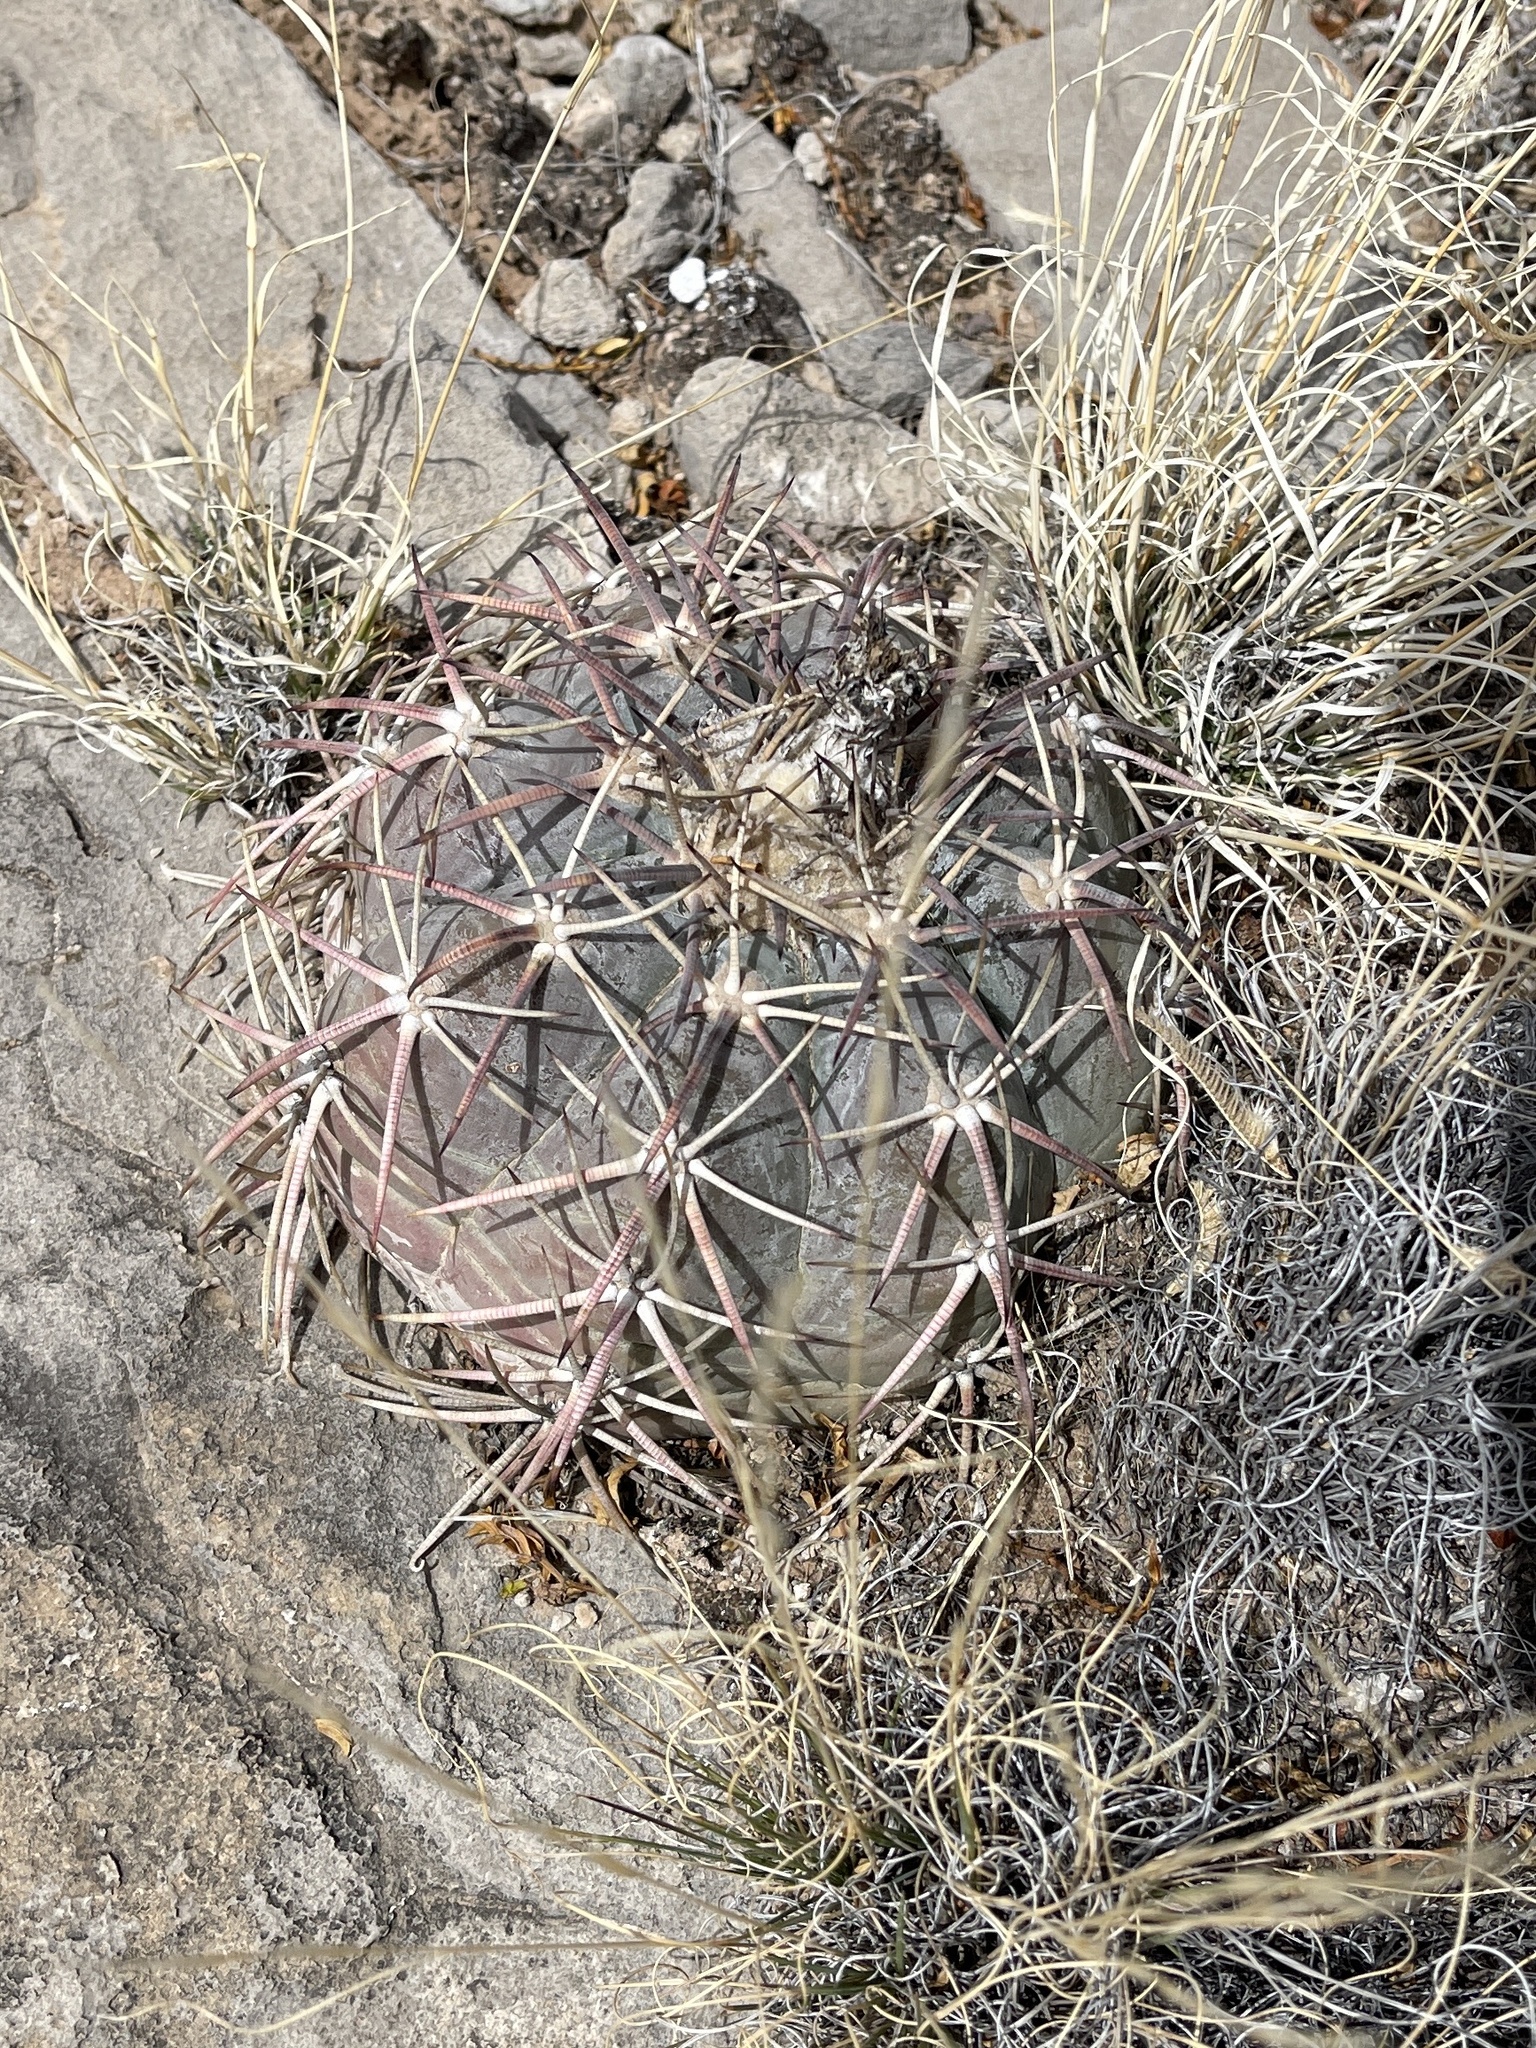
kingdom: Plantae
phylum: Tracheophyta
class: Magnoliopsida
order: Caryophyllales
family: Cactaceae
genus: Echinocactus
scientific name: Echinocactus horizonthalonius
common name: Devilshead
